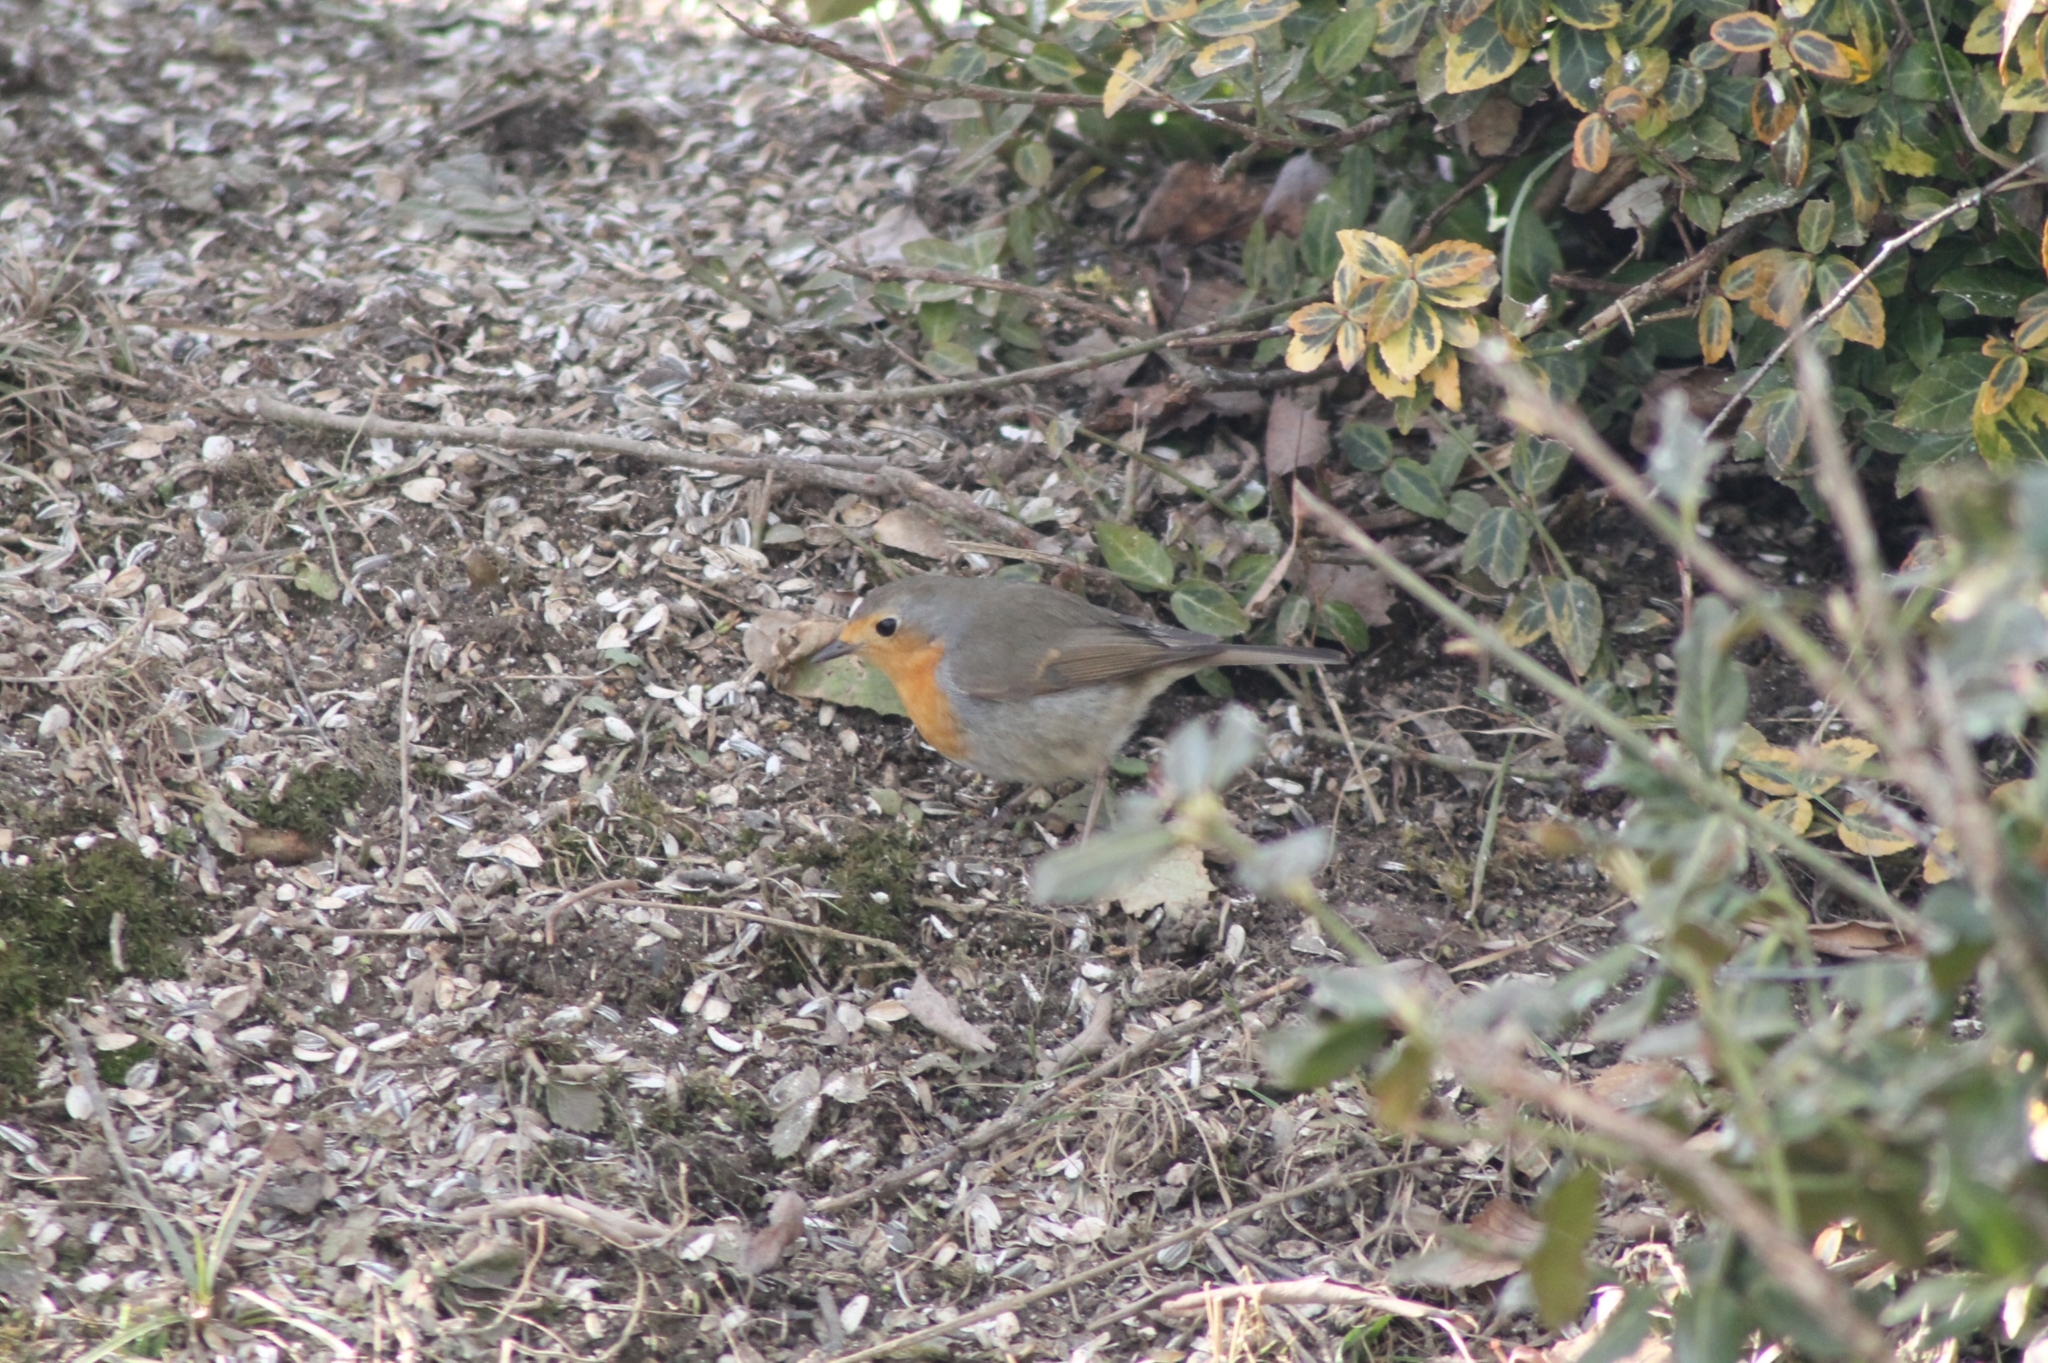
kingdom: Animalia
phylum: Chordata
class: Aves
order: Passeriformes
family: Muscicapidae
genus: Erithacus
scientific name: Erithacus rubecula
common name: European robin
